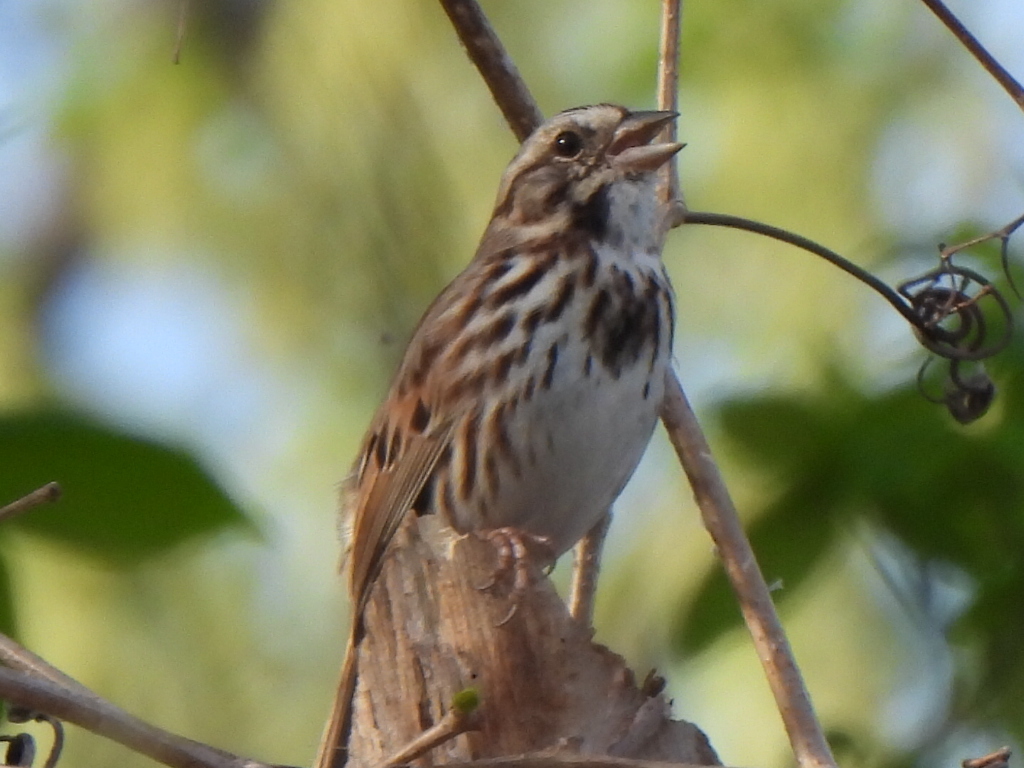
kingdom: Animalia
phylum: Chordata
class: Aves
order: Passeriformes
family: Passerellidae
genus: Melospiza
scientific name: Melospiza melodia
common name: Song sparrow
